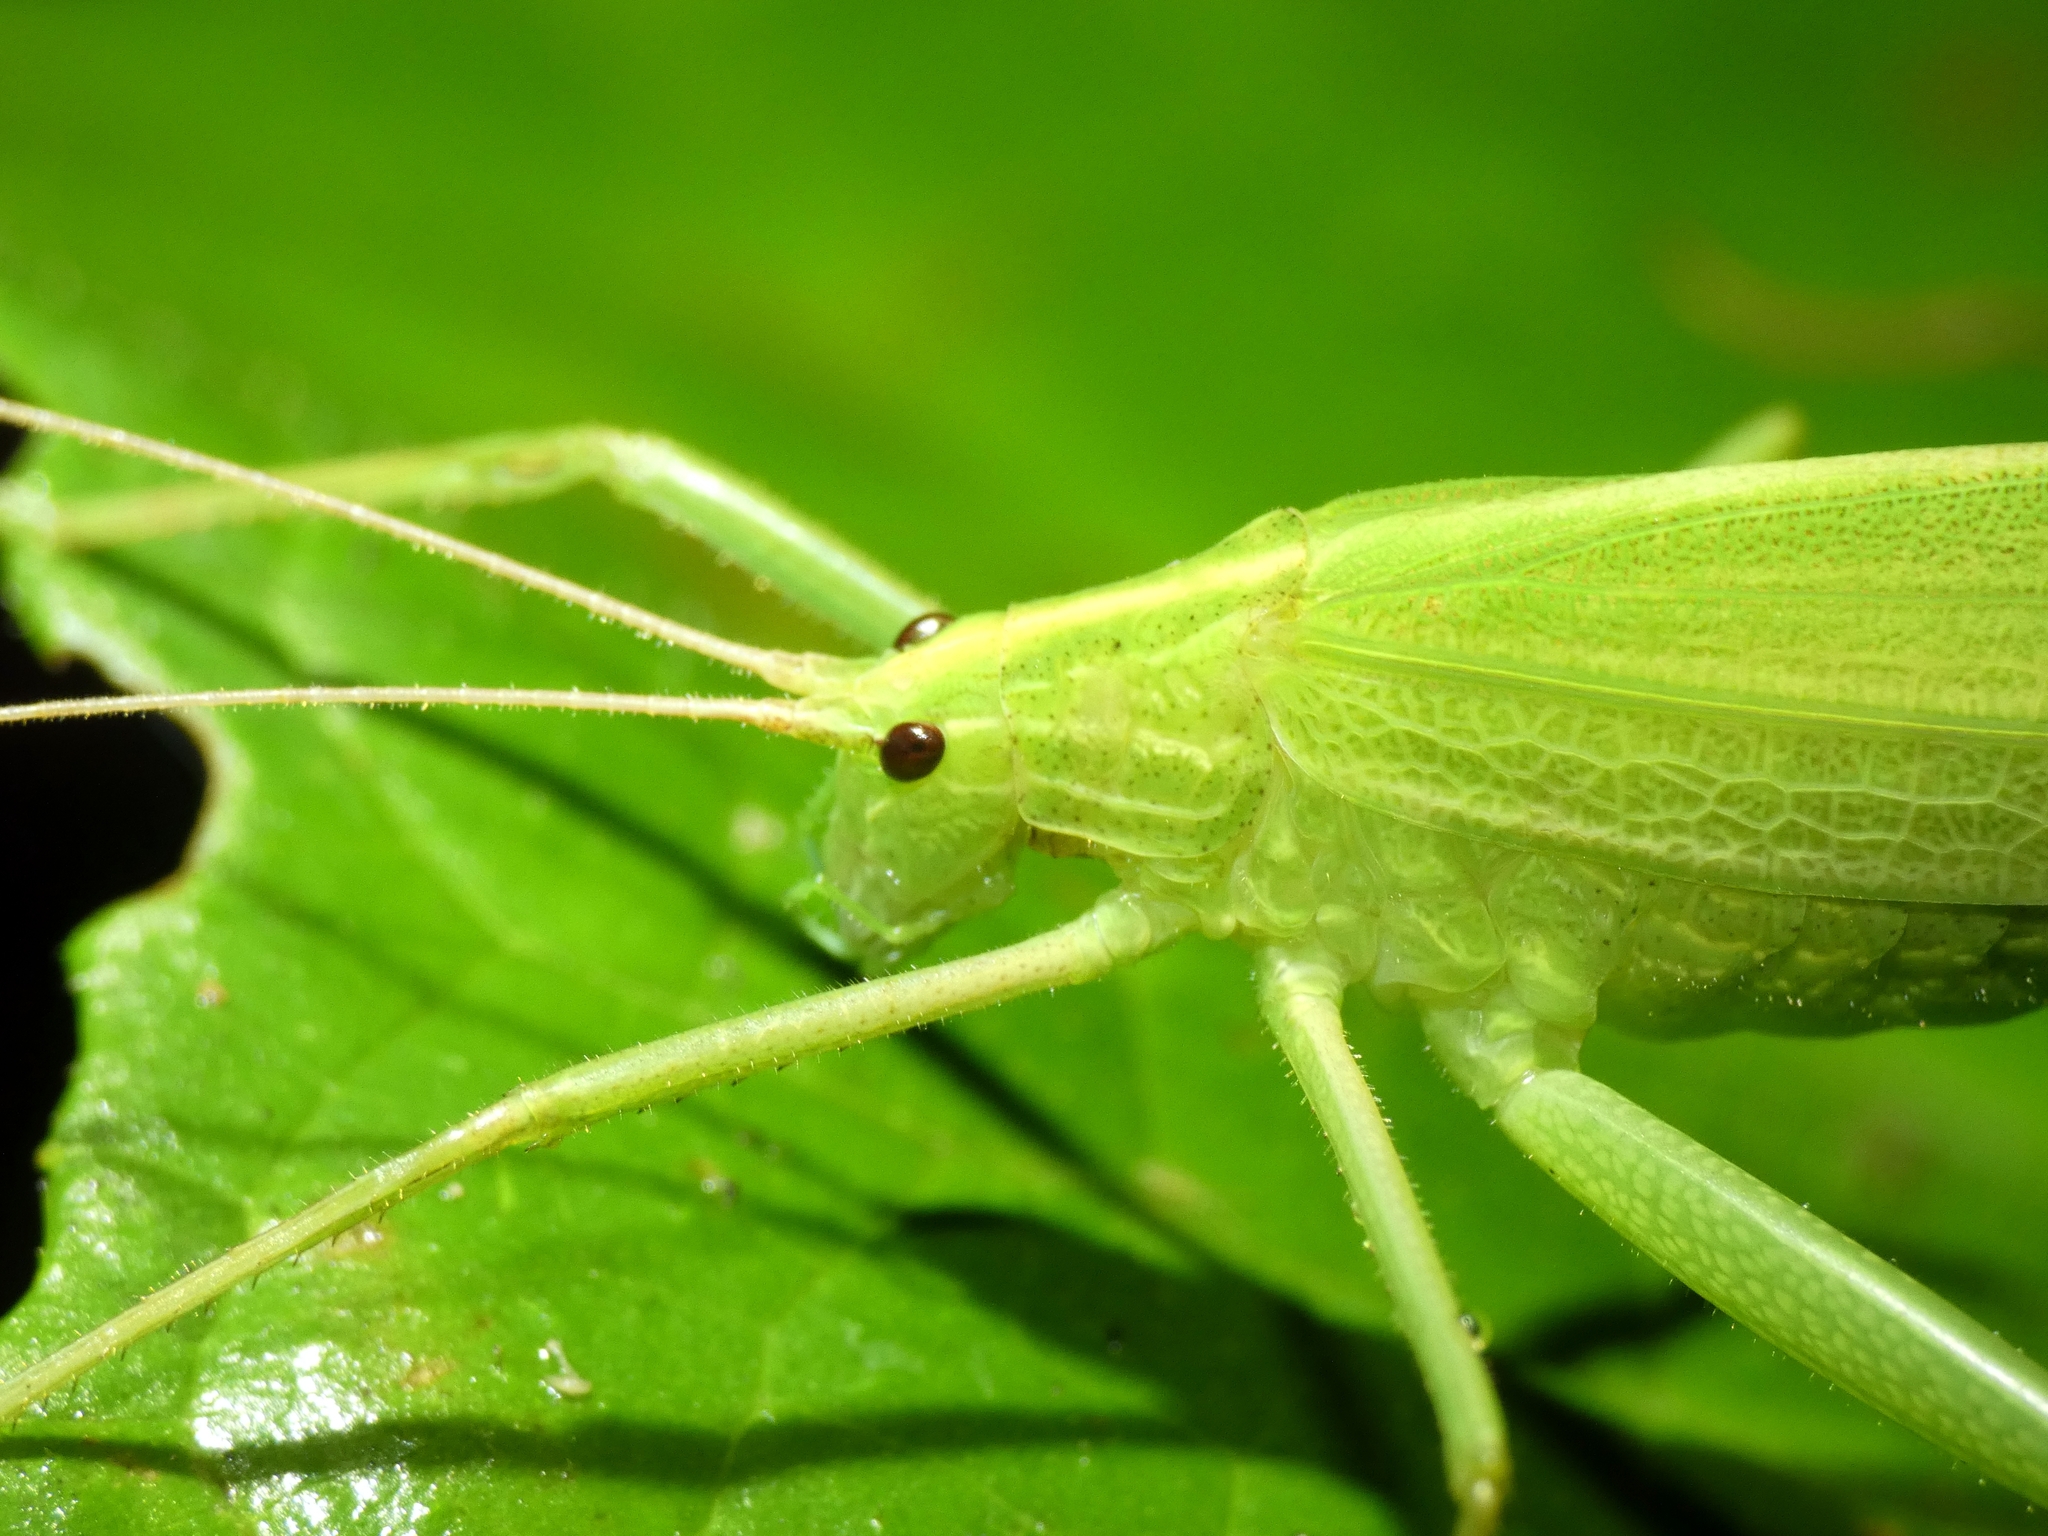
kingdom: Animalia
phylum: Arthropoda
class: Insecta
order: Orthoptera
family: Tettigoniidae
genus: Ducetia
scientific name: Ducetia antipoda
